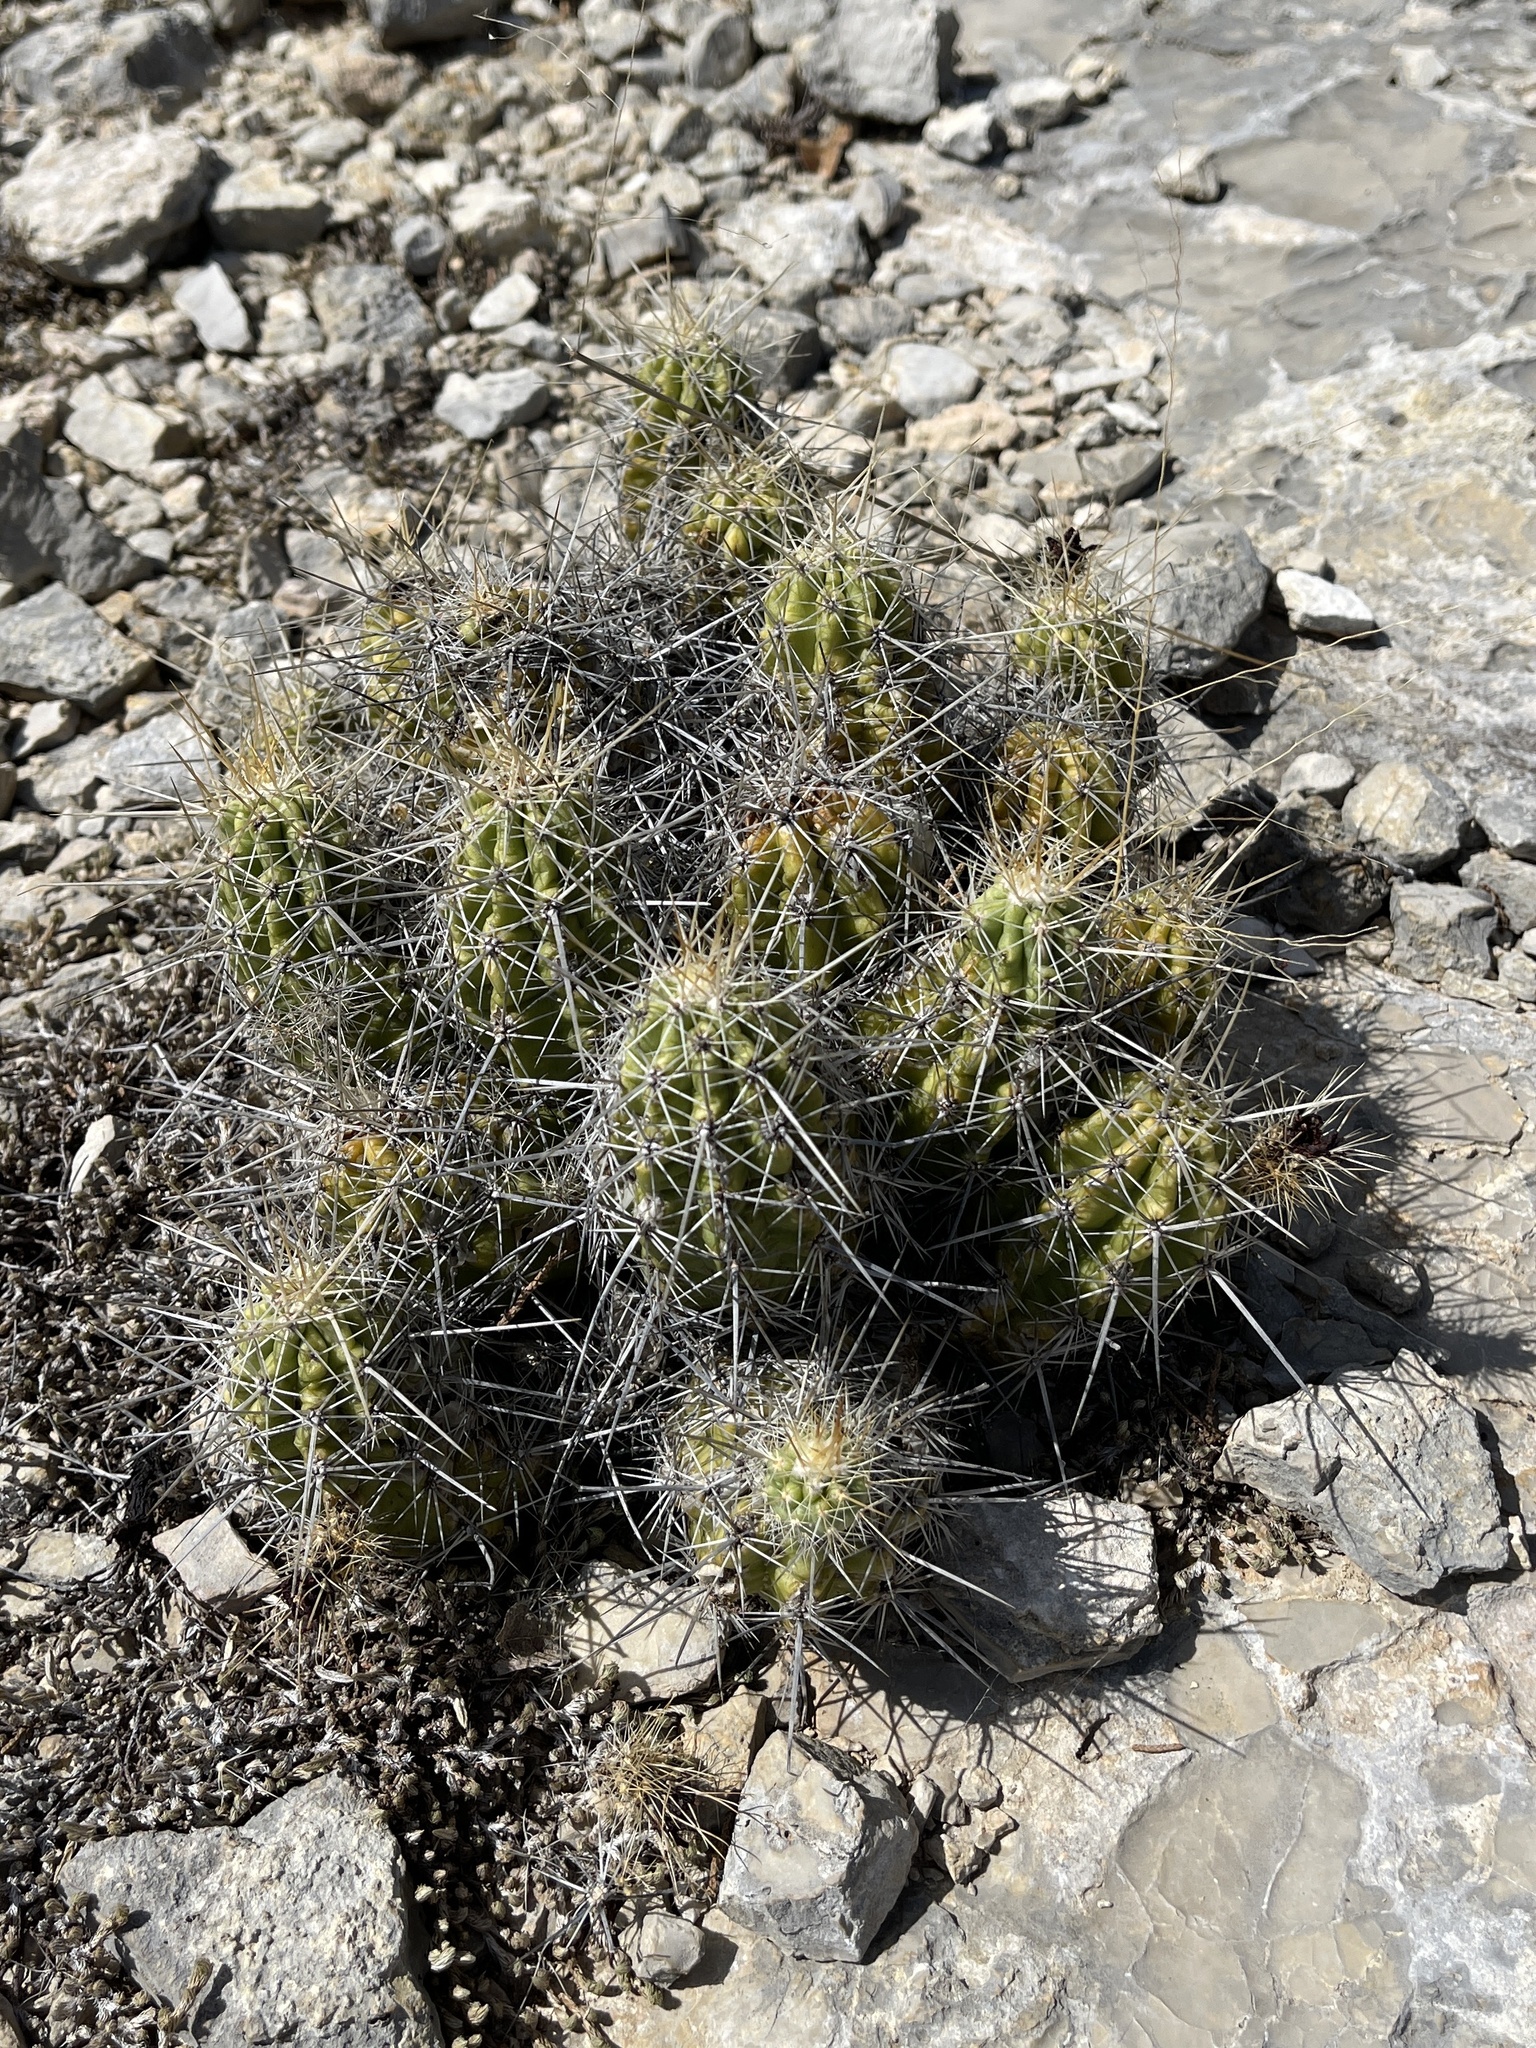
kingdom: Plantae
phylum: Tracheophyta
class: Magnoliopsida
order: Caryophyllales
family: Cactaceae
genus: Echinocereus
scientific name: Echinocereus enneacanthus
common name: Pitaya
